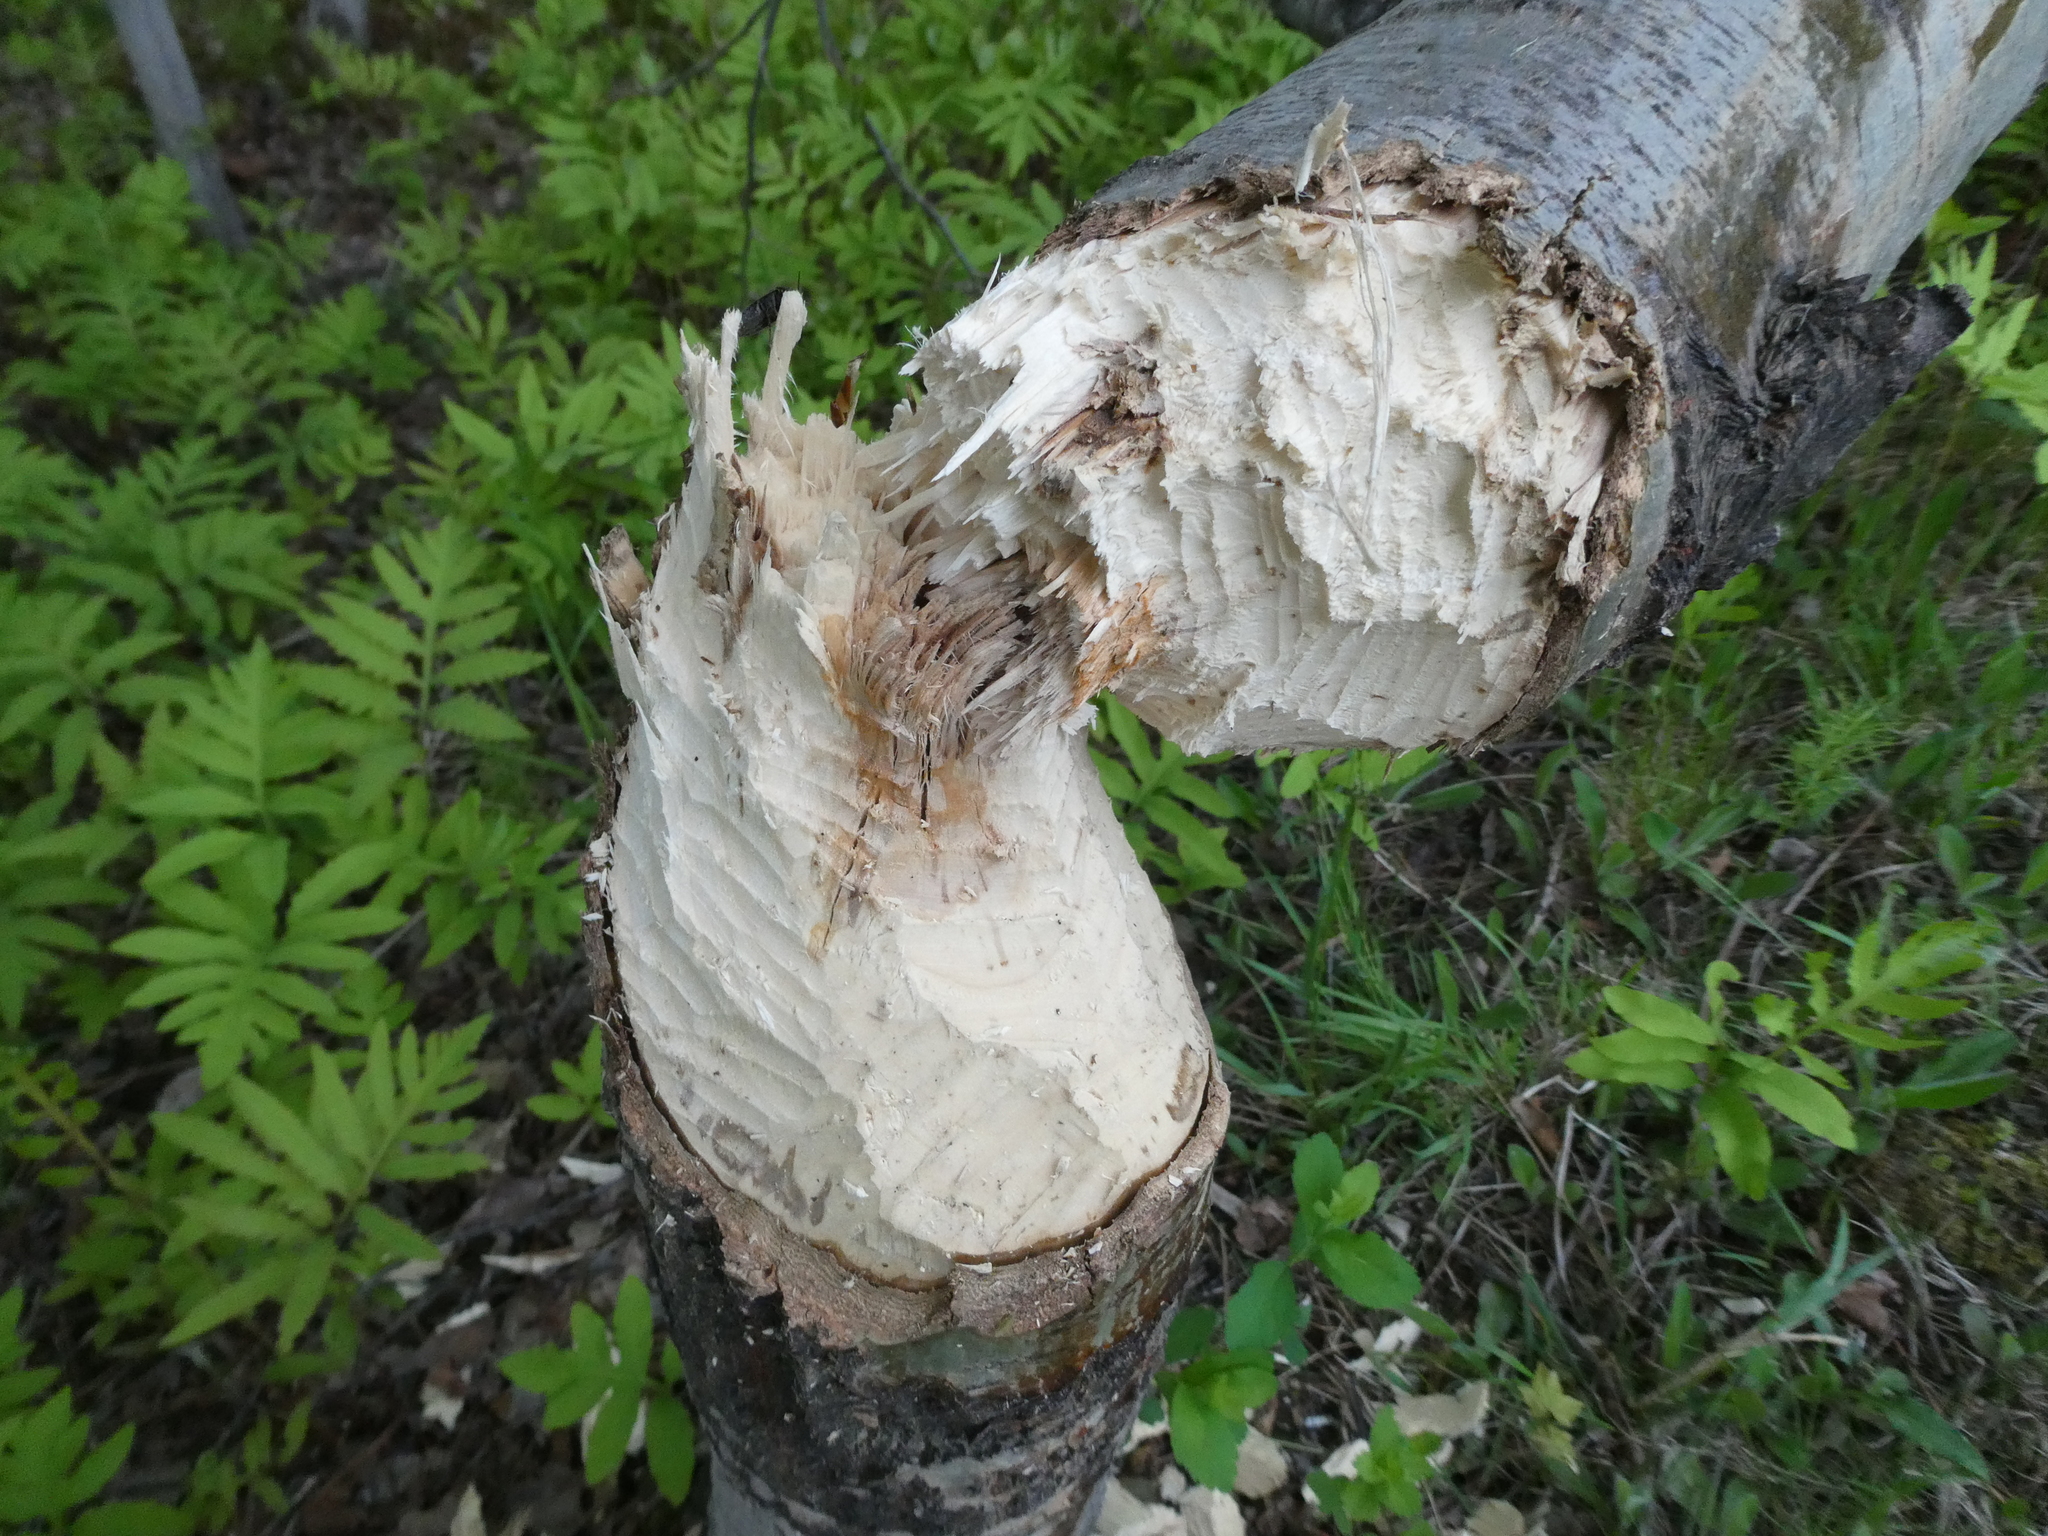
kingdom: Animalia
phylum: Chordata
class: Mammalia
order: Rodentia
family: Castoridae
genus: Castor
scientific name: Castor canadensis
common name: American beaver
